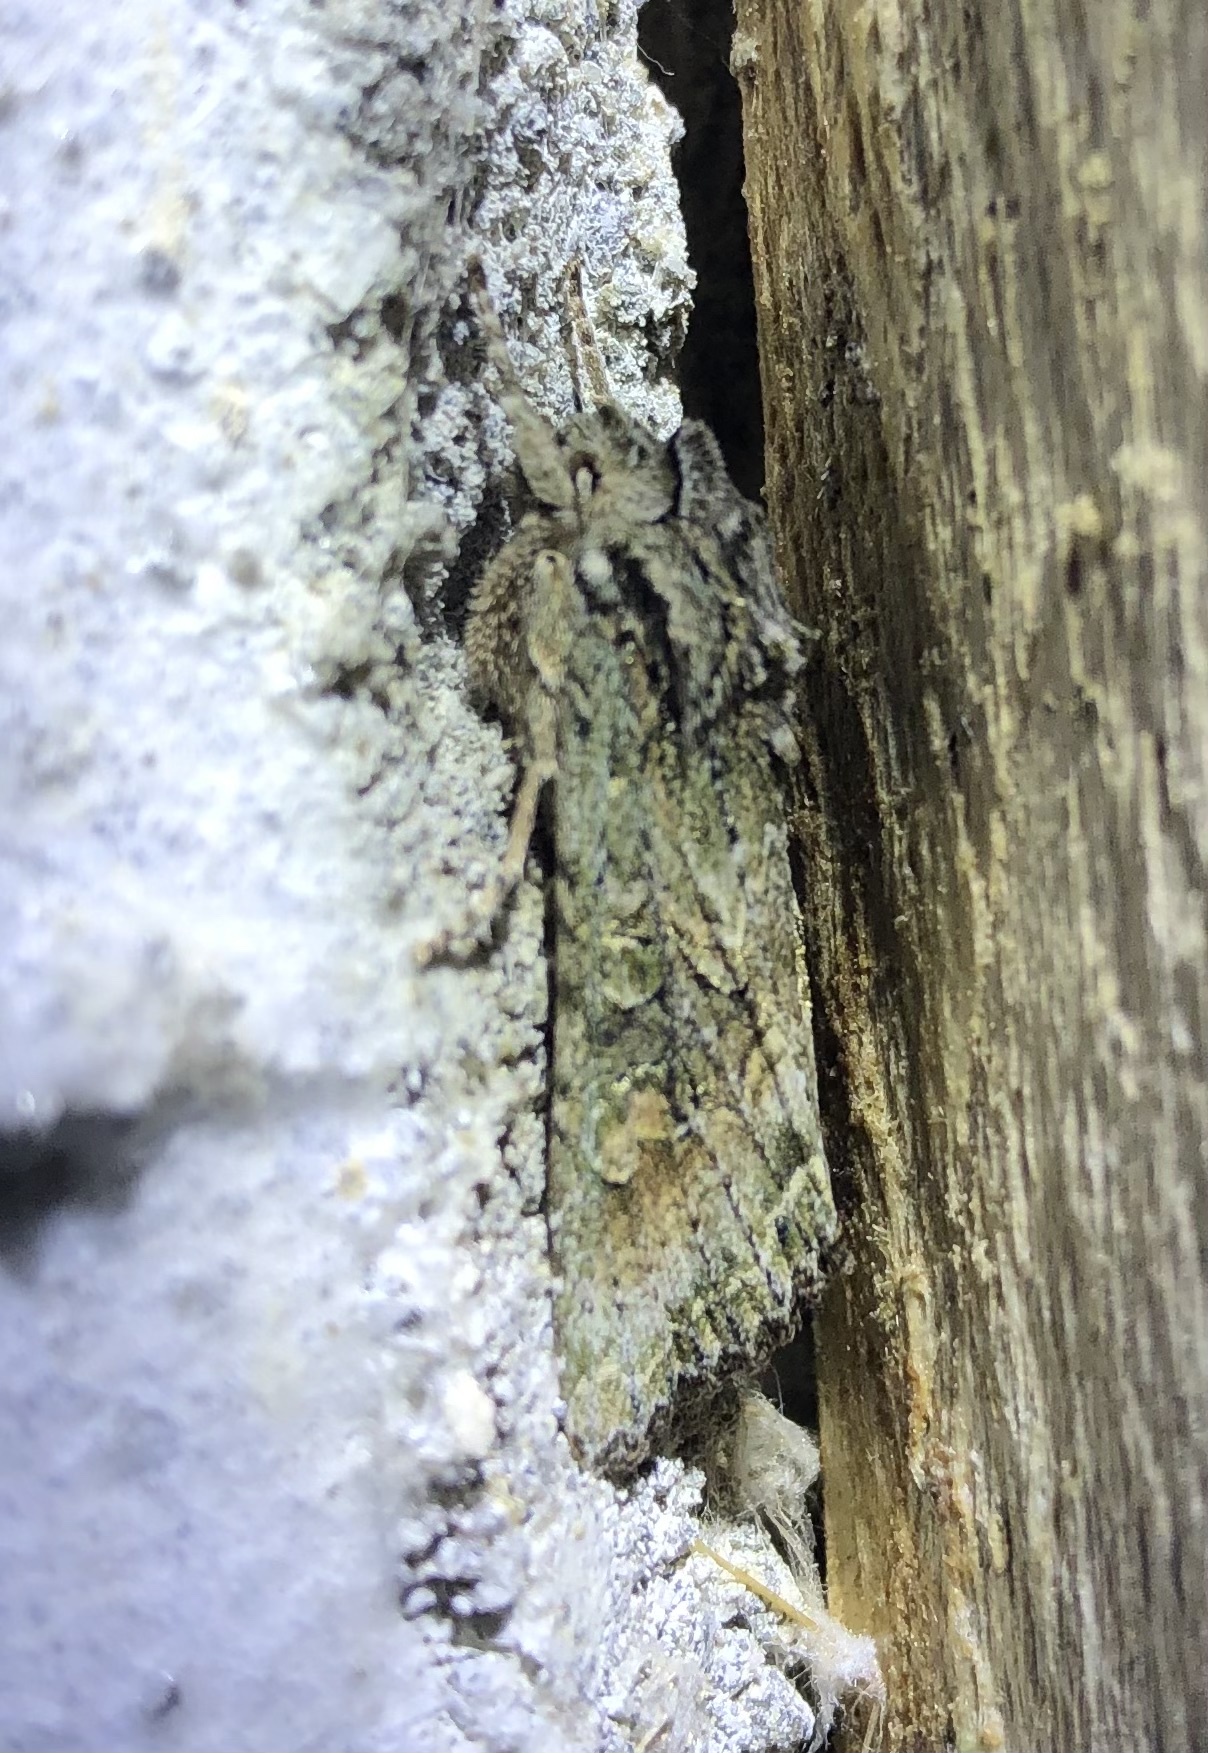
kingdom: Animalia
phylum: Arthropoda
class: Insecta
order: Lepidoptera
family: Noctuidae
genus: Ichneutica
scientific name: Ichneutica mutans
